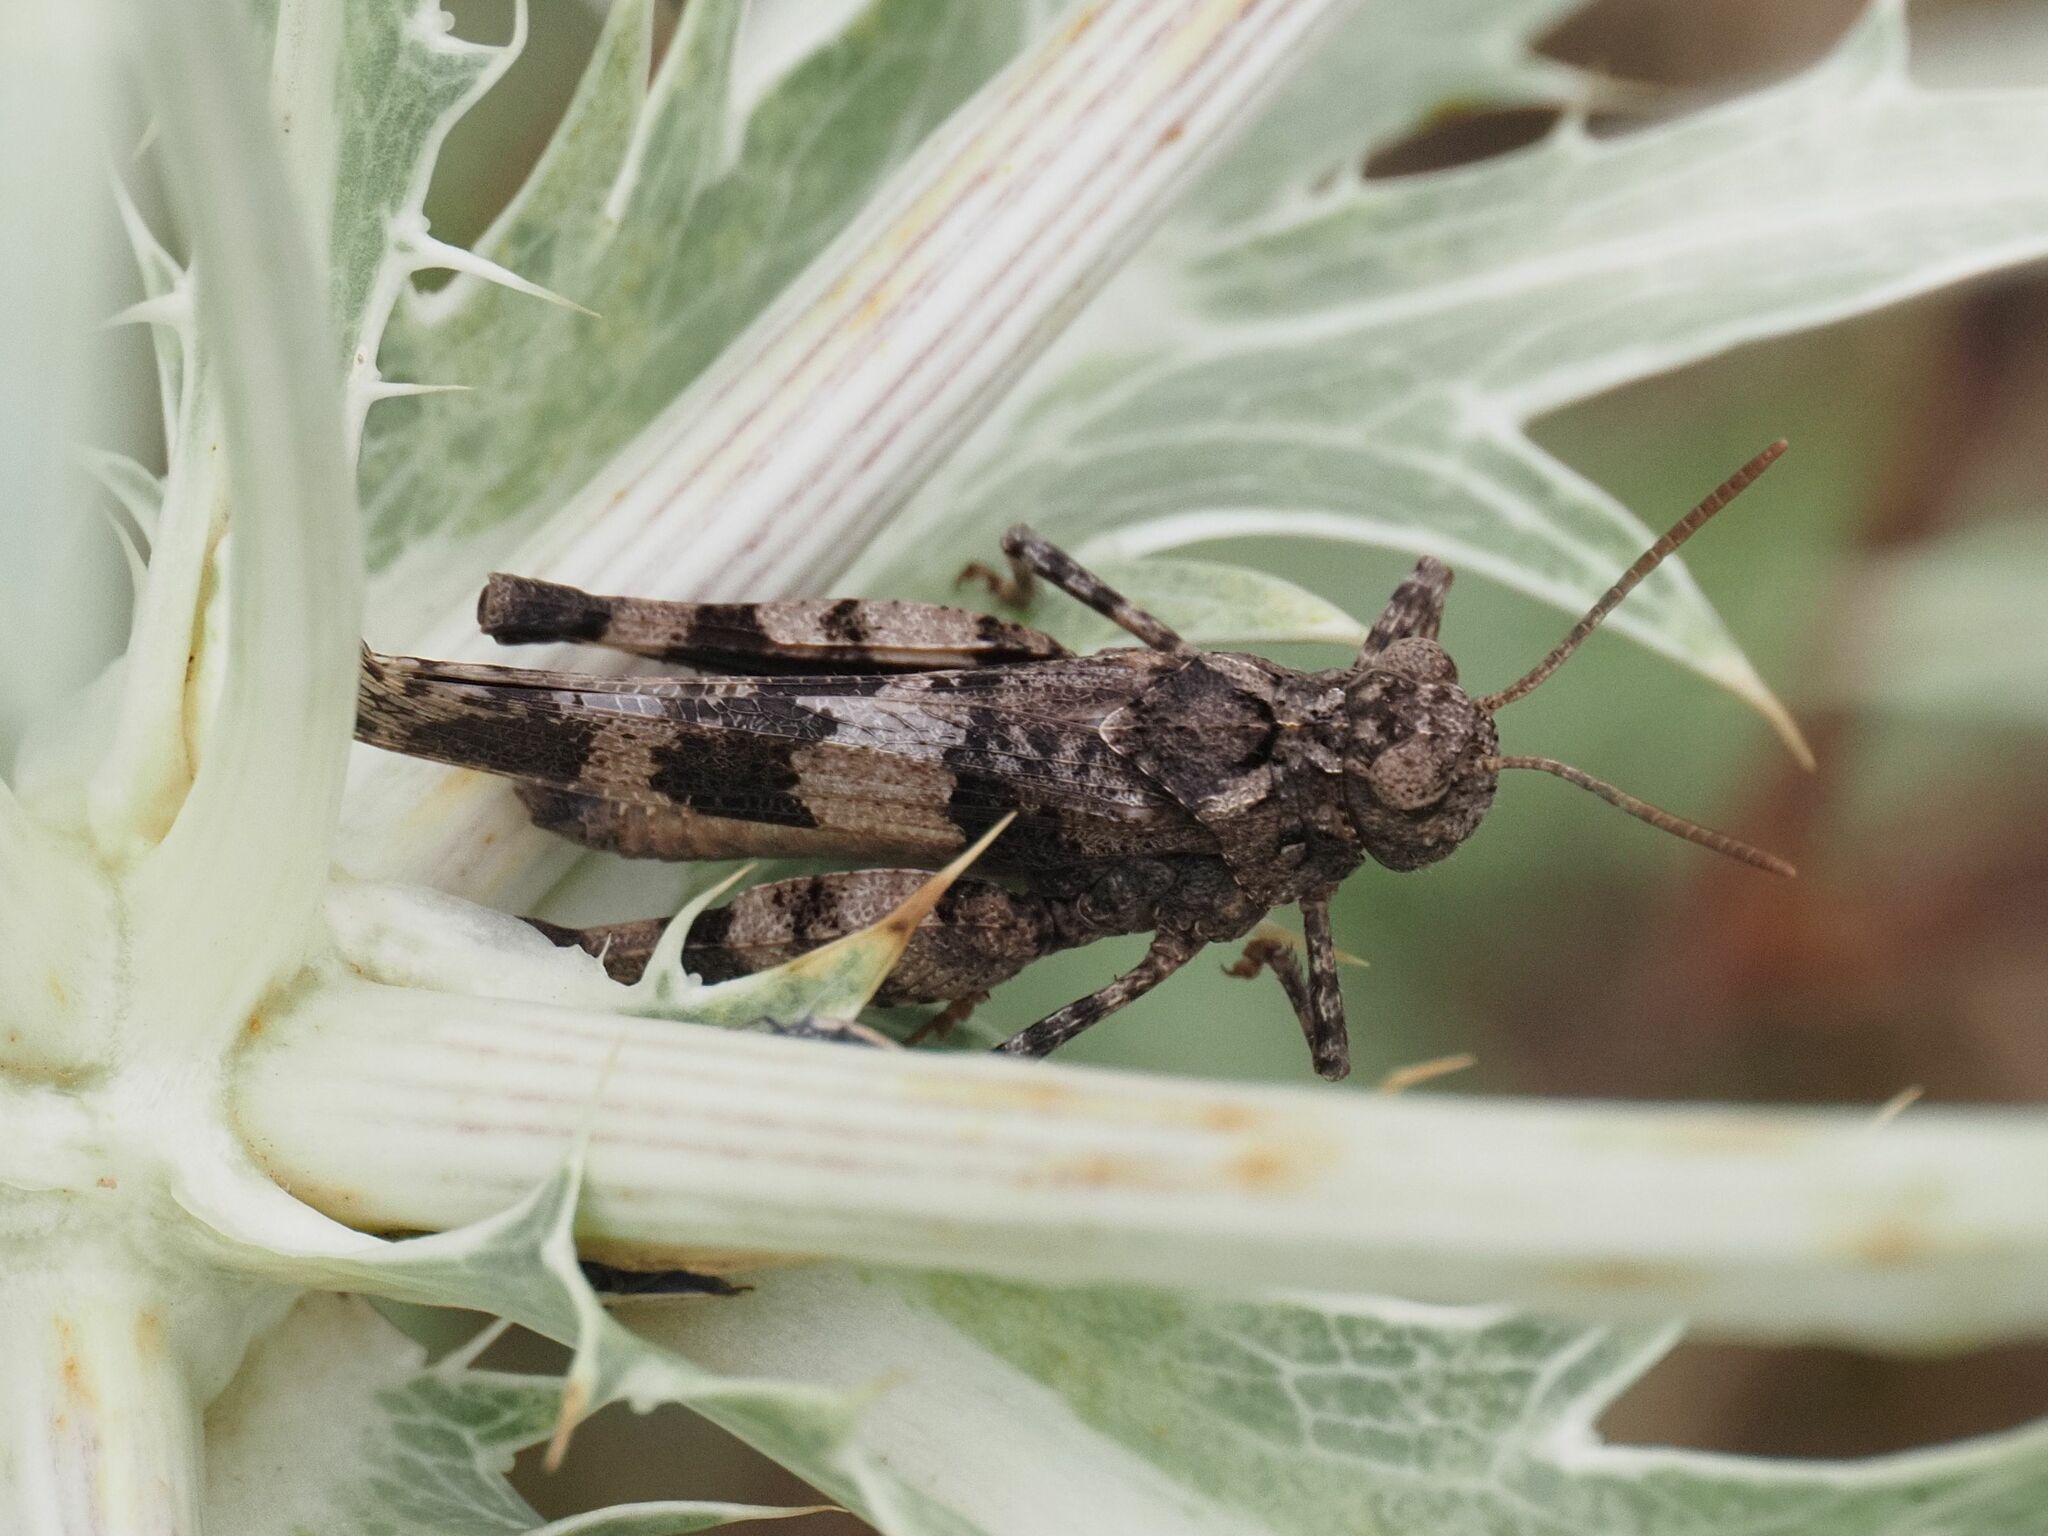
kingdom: Animalia
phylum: Arthropoda
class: Insecta
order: Orthoptera
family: Acrididae
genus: Oedipoda
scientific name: Oedipoda caerulescens
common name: Blue-winged grasshopper
